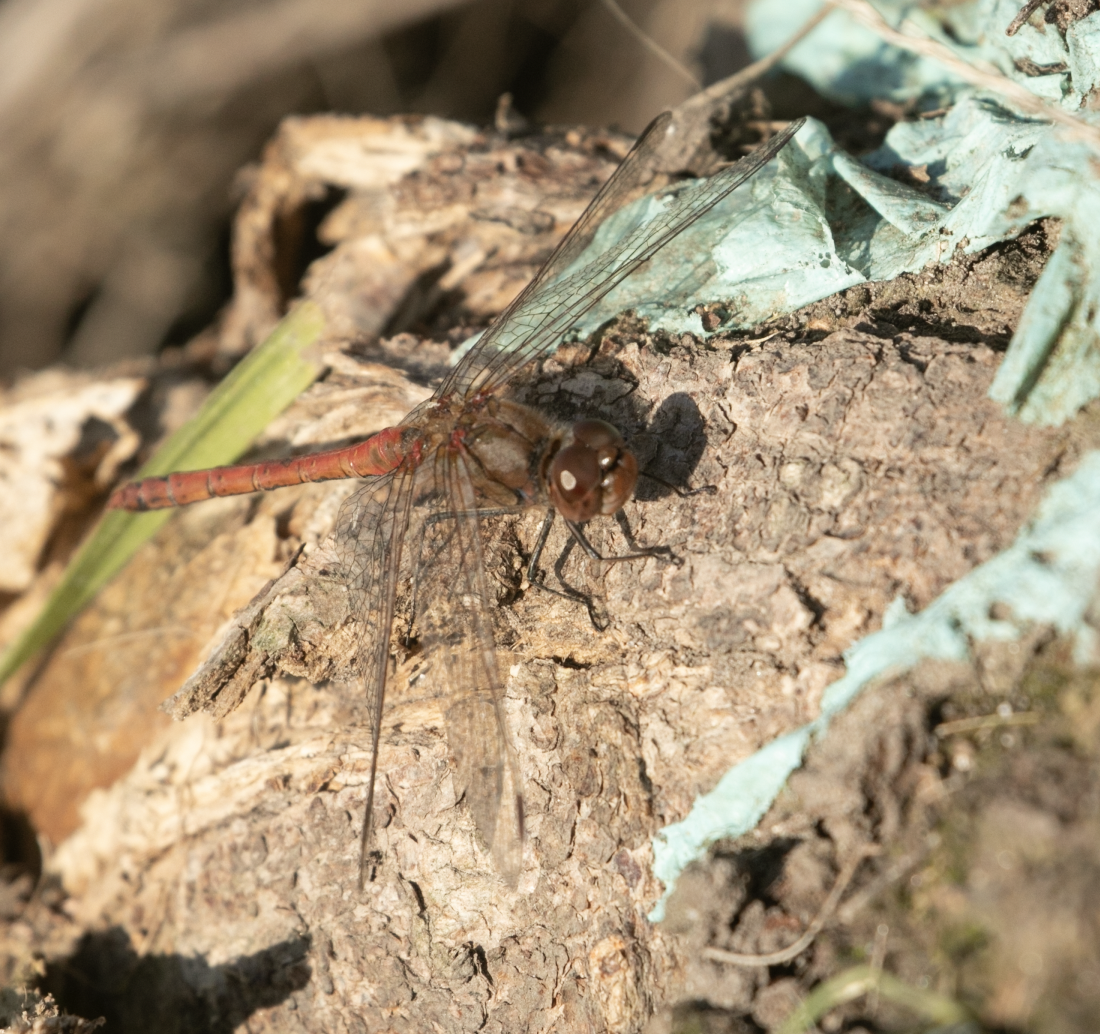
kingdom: Animalia
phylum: Arthropoda
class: Insecta
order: Odonata
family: Libellulidae
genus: Sympetrum
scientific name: Sympetrum striolatum
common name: Common darter
